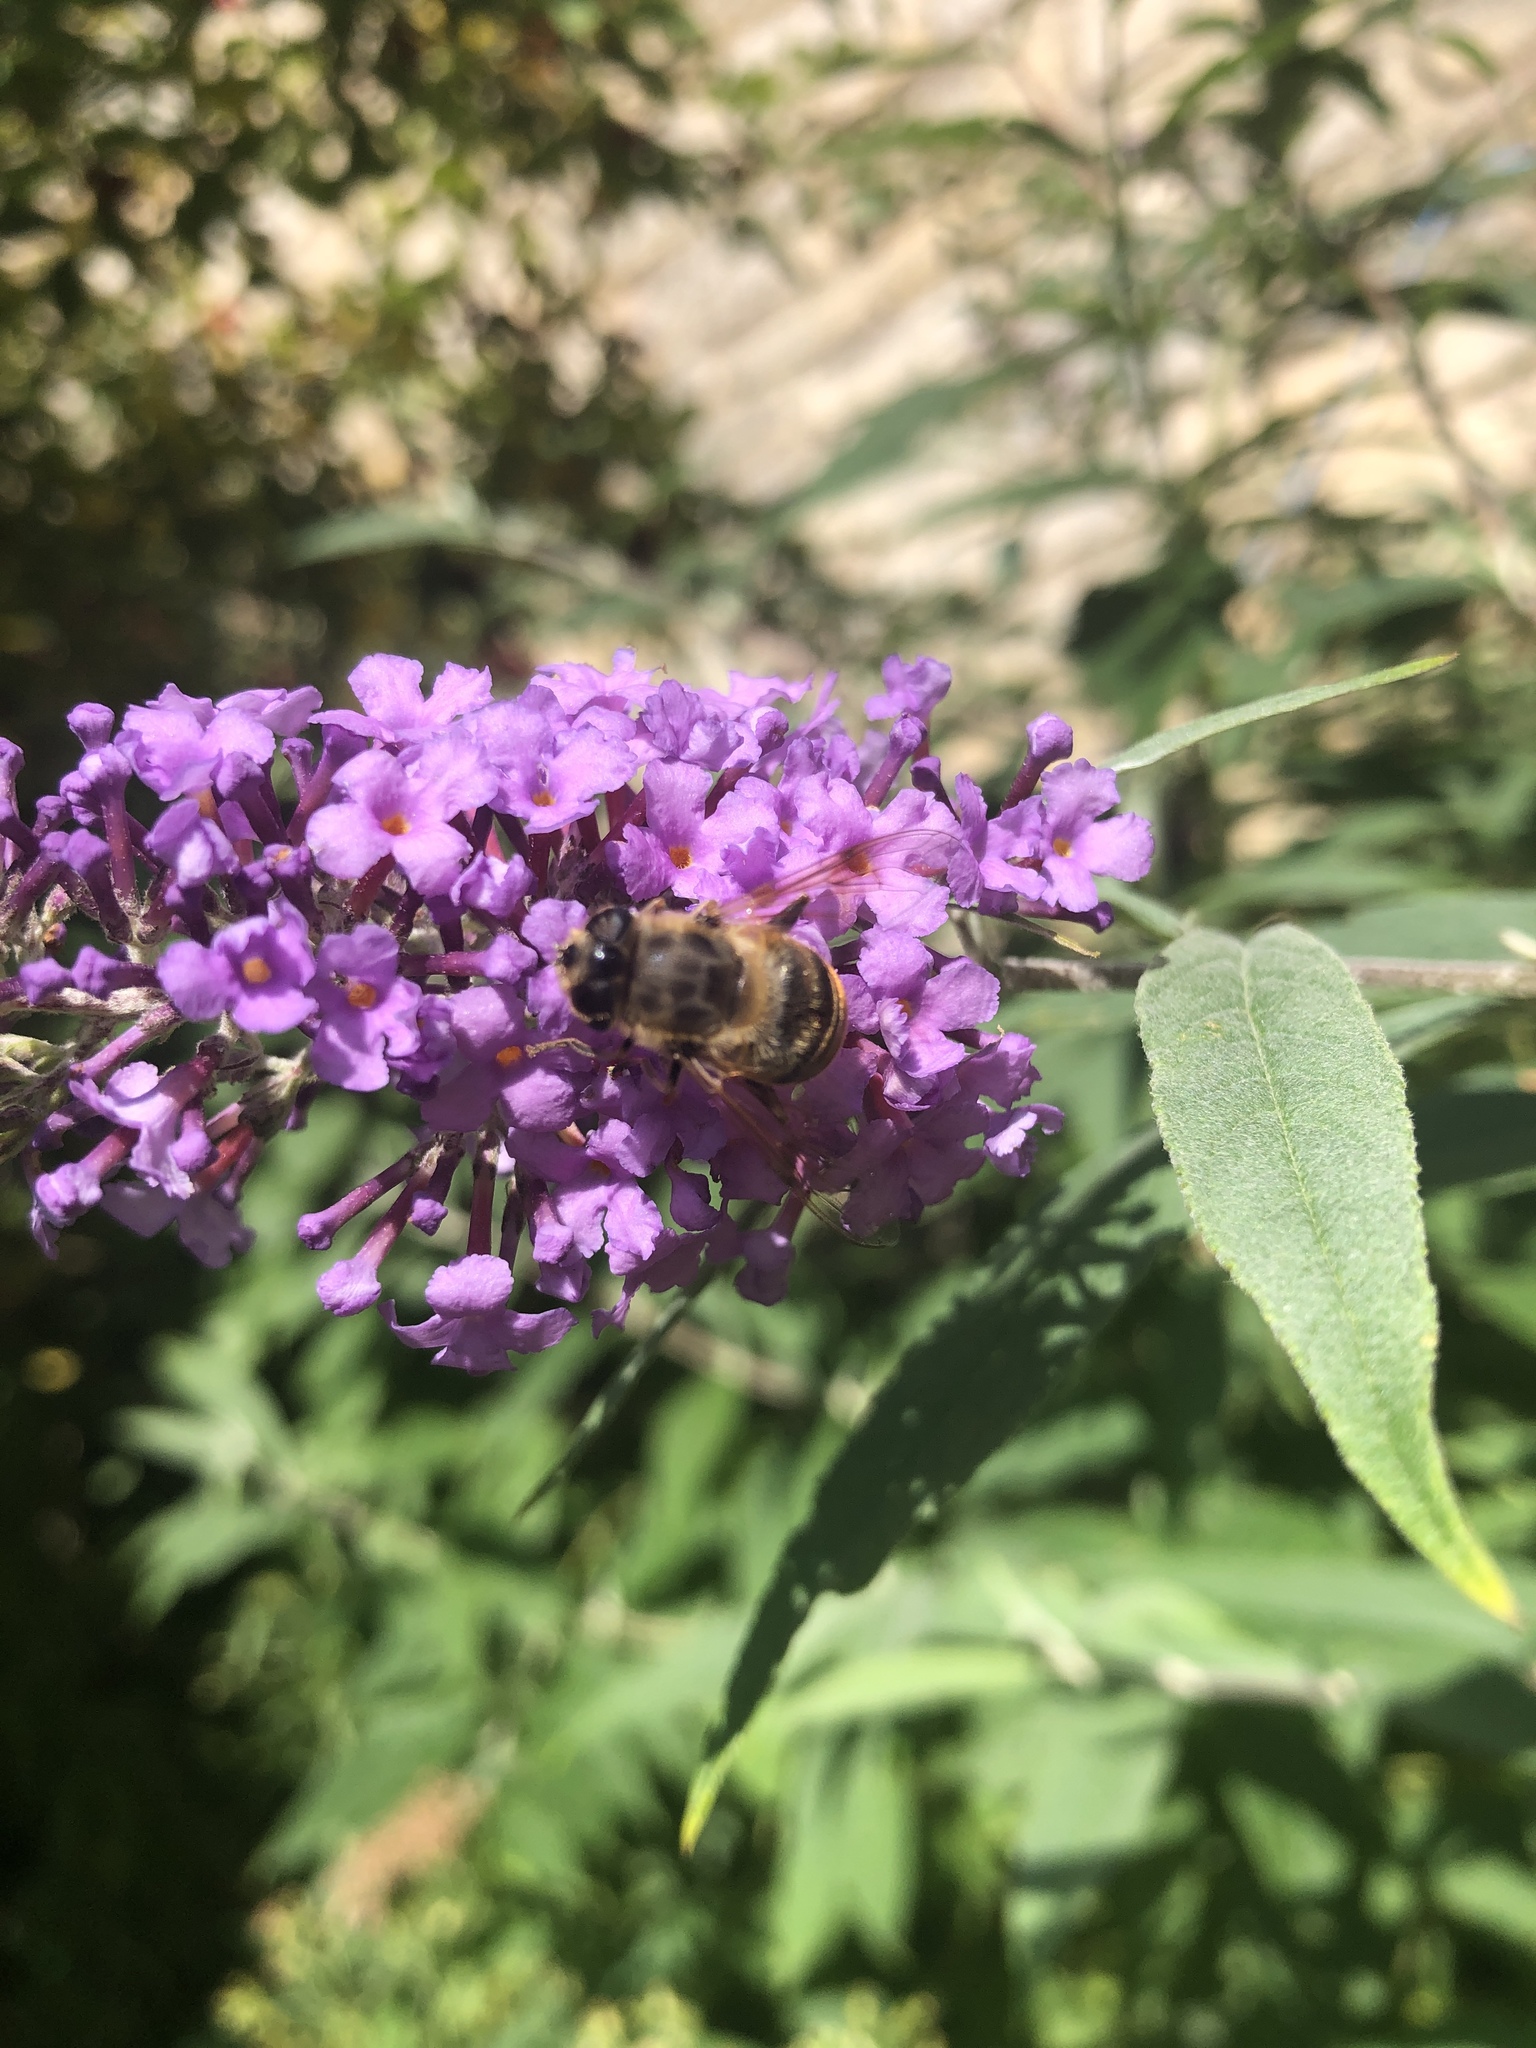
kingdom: Animalia
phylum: Arthropoda
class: Insecta
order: Diptera
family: Syrphidae
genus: Eristalis
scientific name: Eristalis tenax
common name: Drone fly
